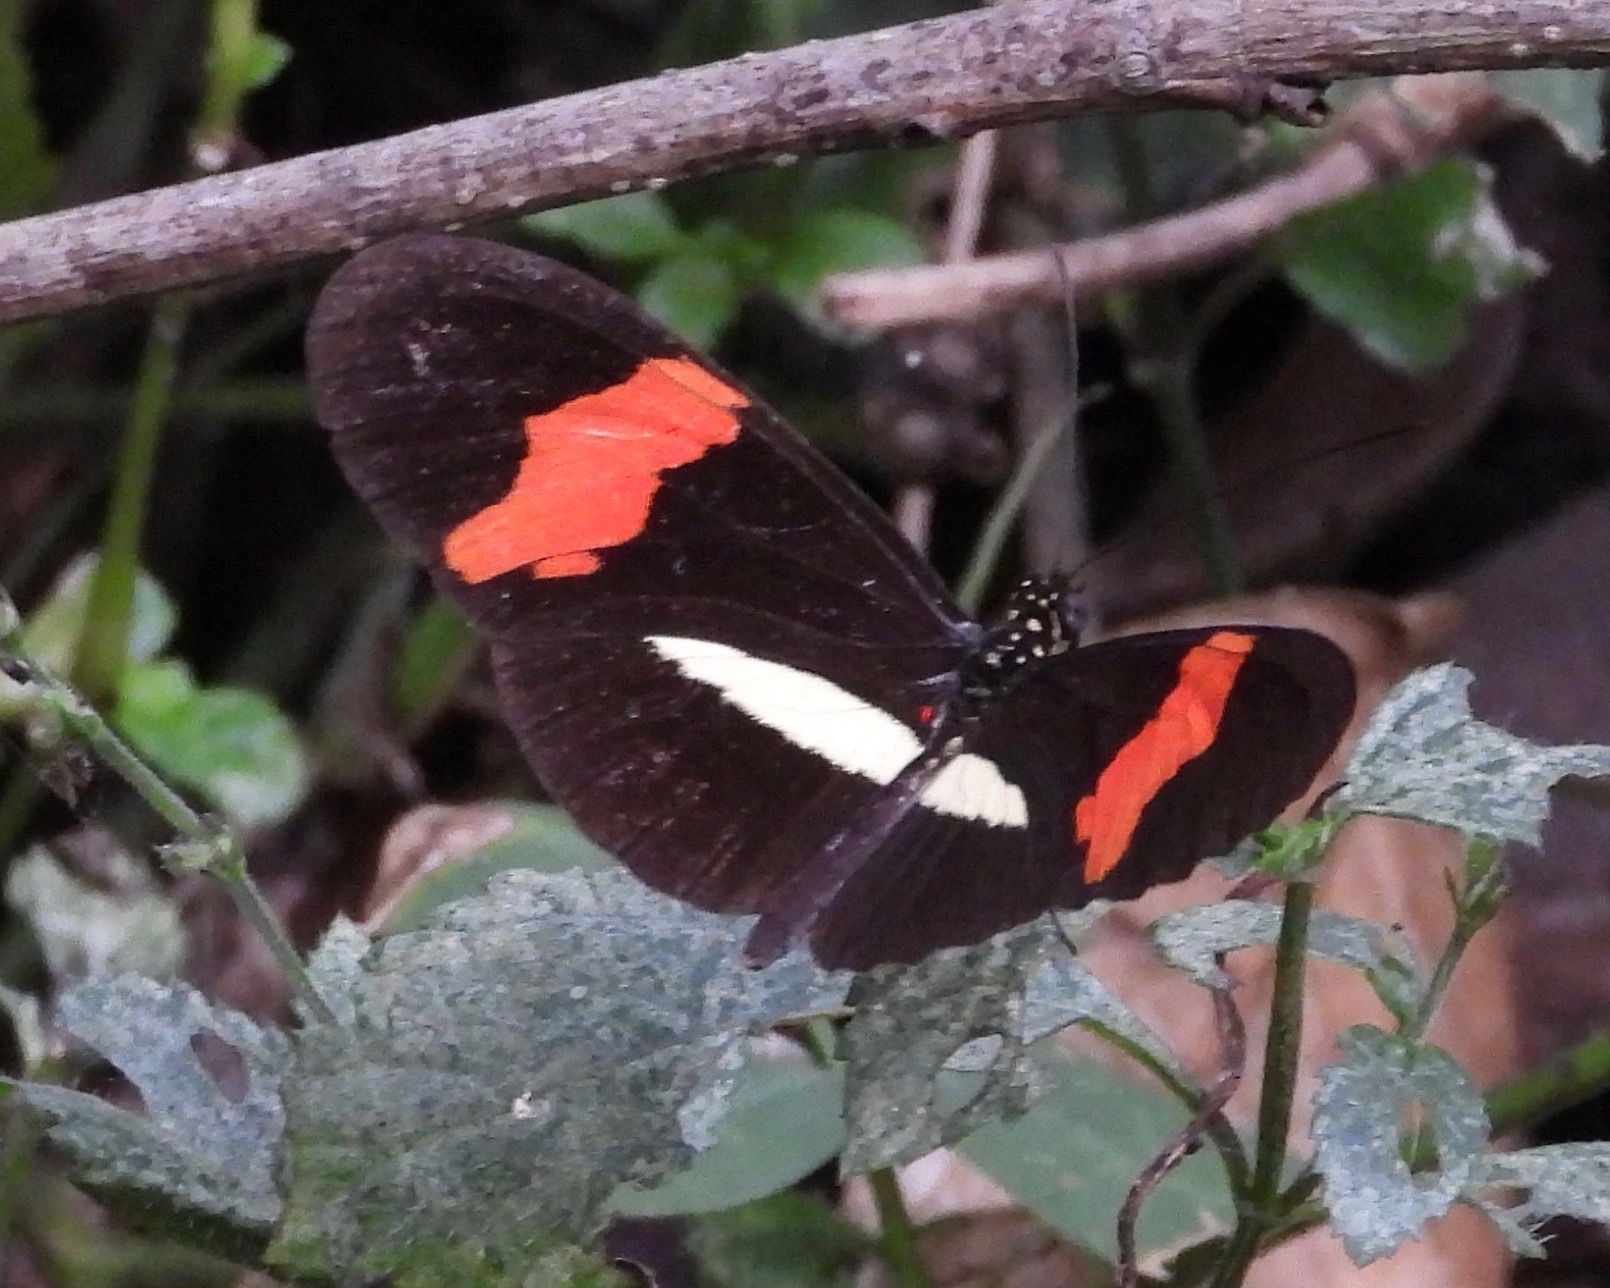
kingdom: Animalia
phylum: Arthropoda
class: Insecta
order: Lepidoptera
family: Nymphalidae
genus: Heliconius
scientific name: Heliconius erato
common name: Common patch longwing
